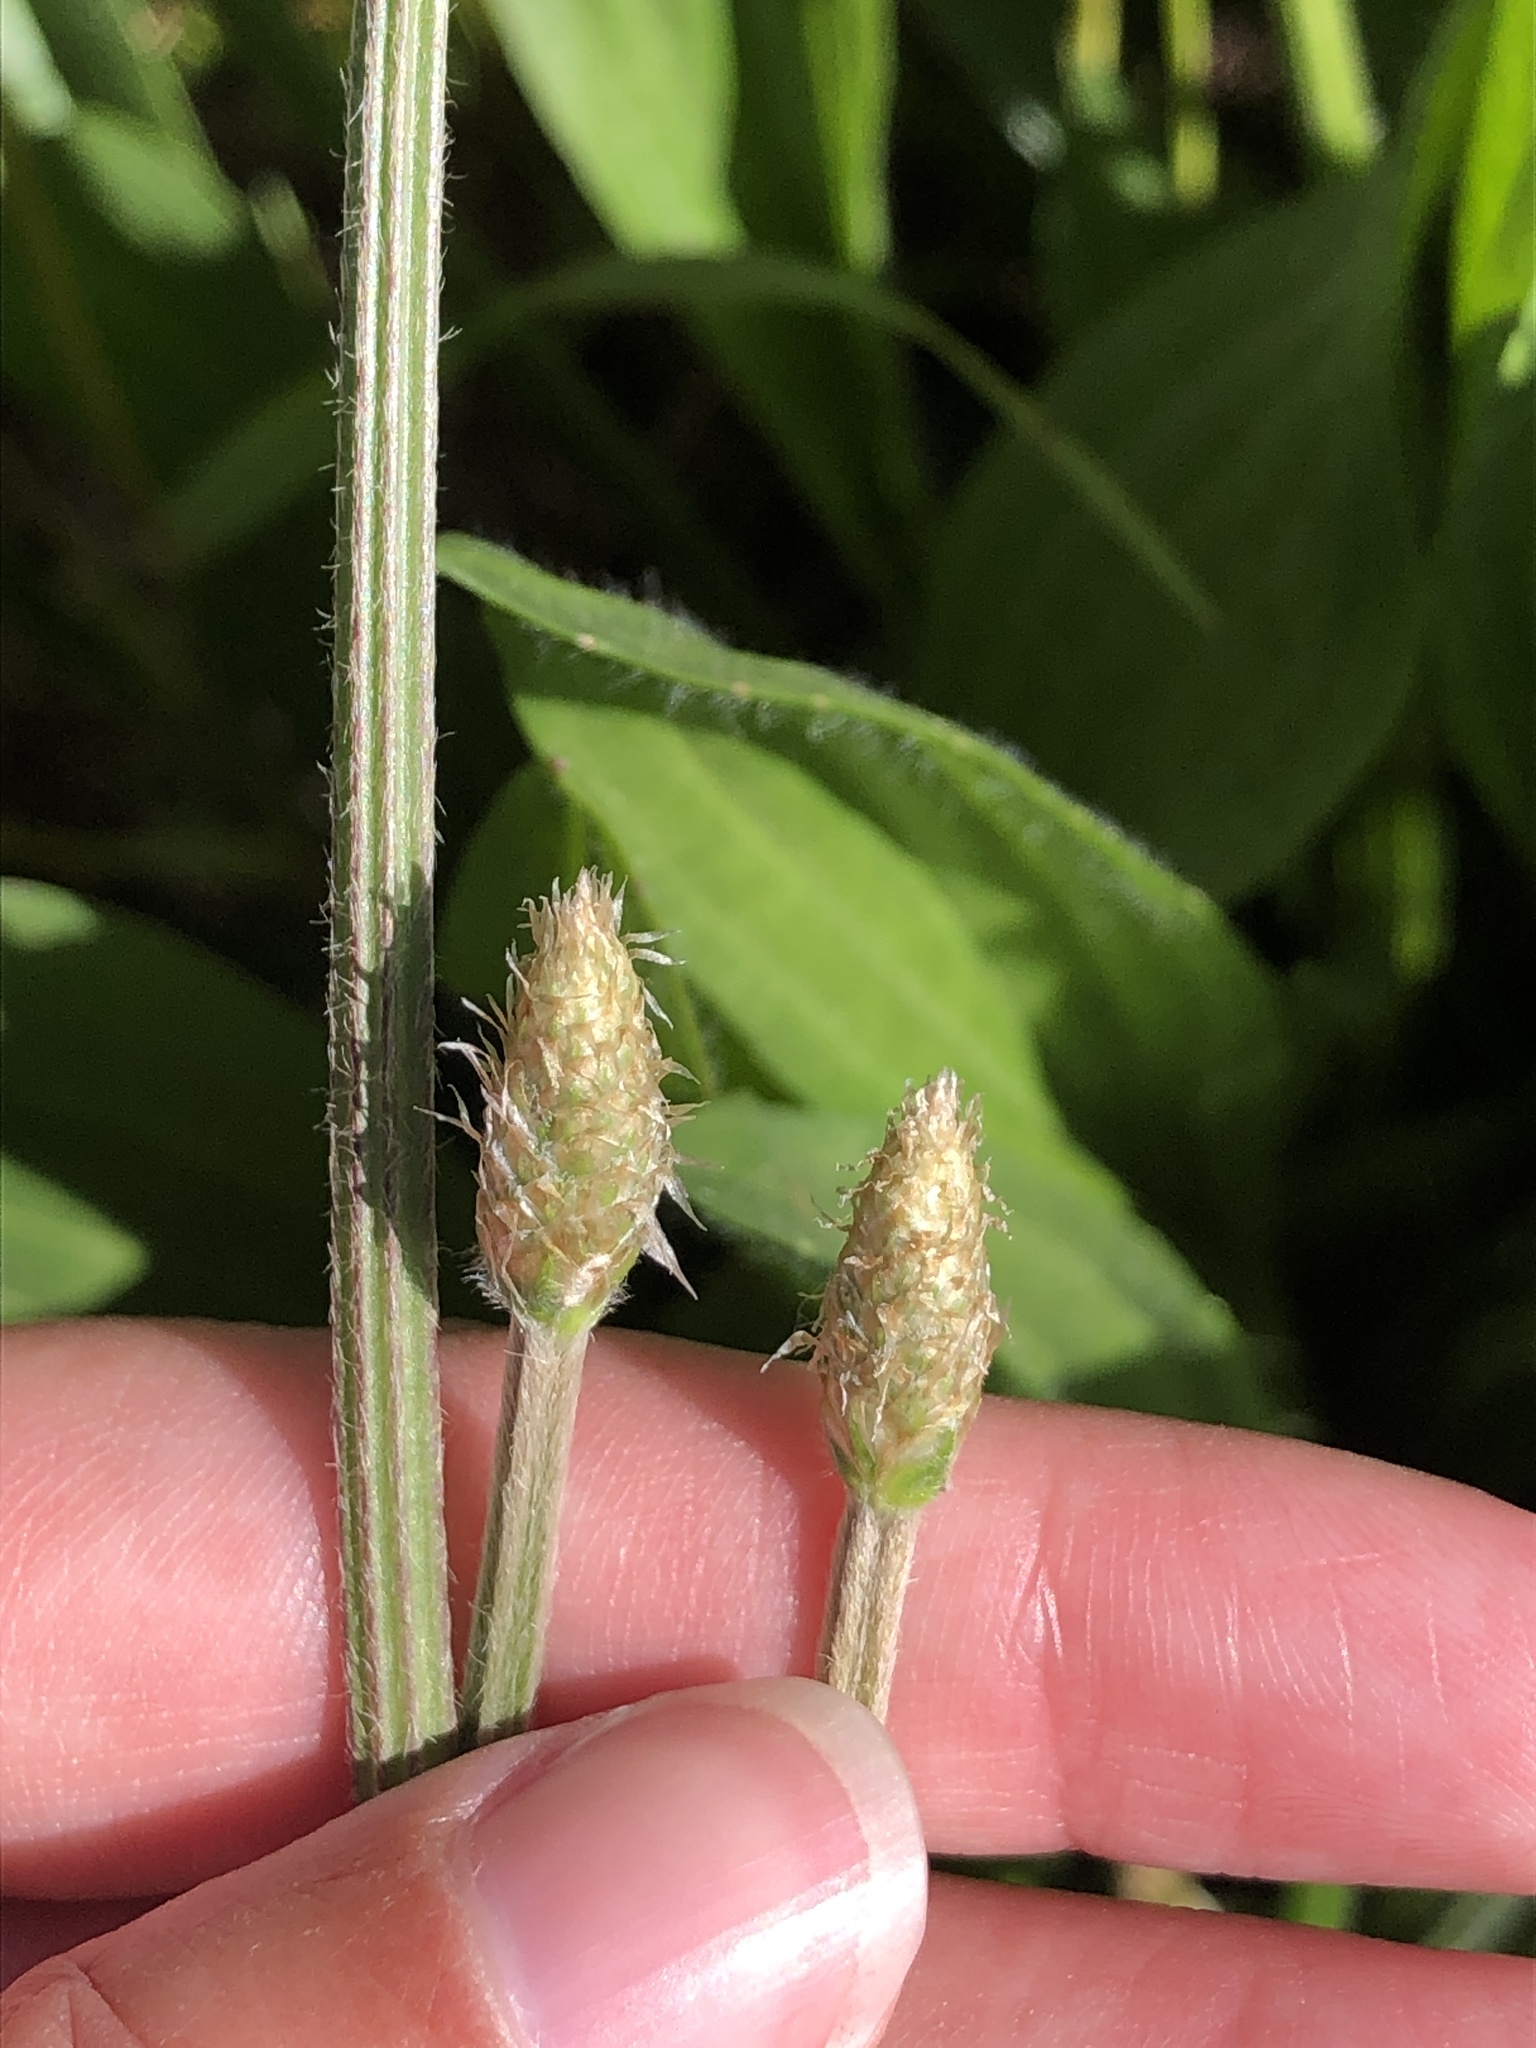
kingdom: Plantae
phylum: Tracheophyta
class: Magnoliopsida
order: Lamiales
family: Plantaginaceae
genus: Plantago
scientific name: Plantago lanceolata
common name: Ribwort plantain
